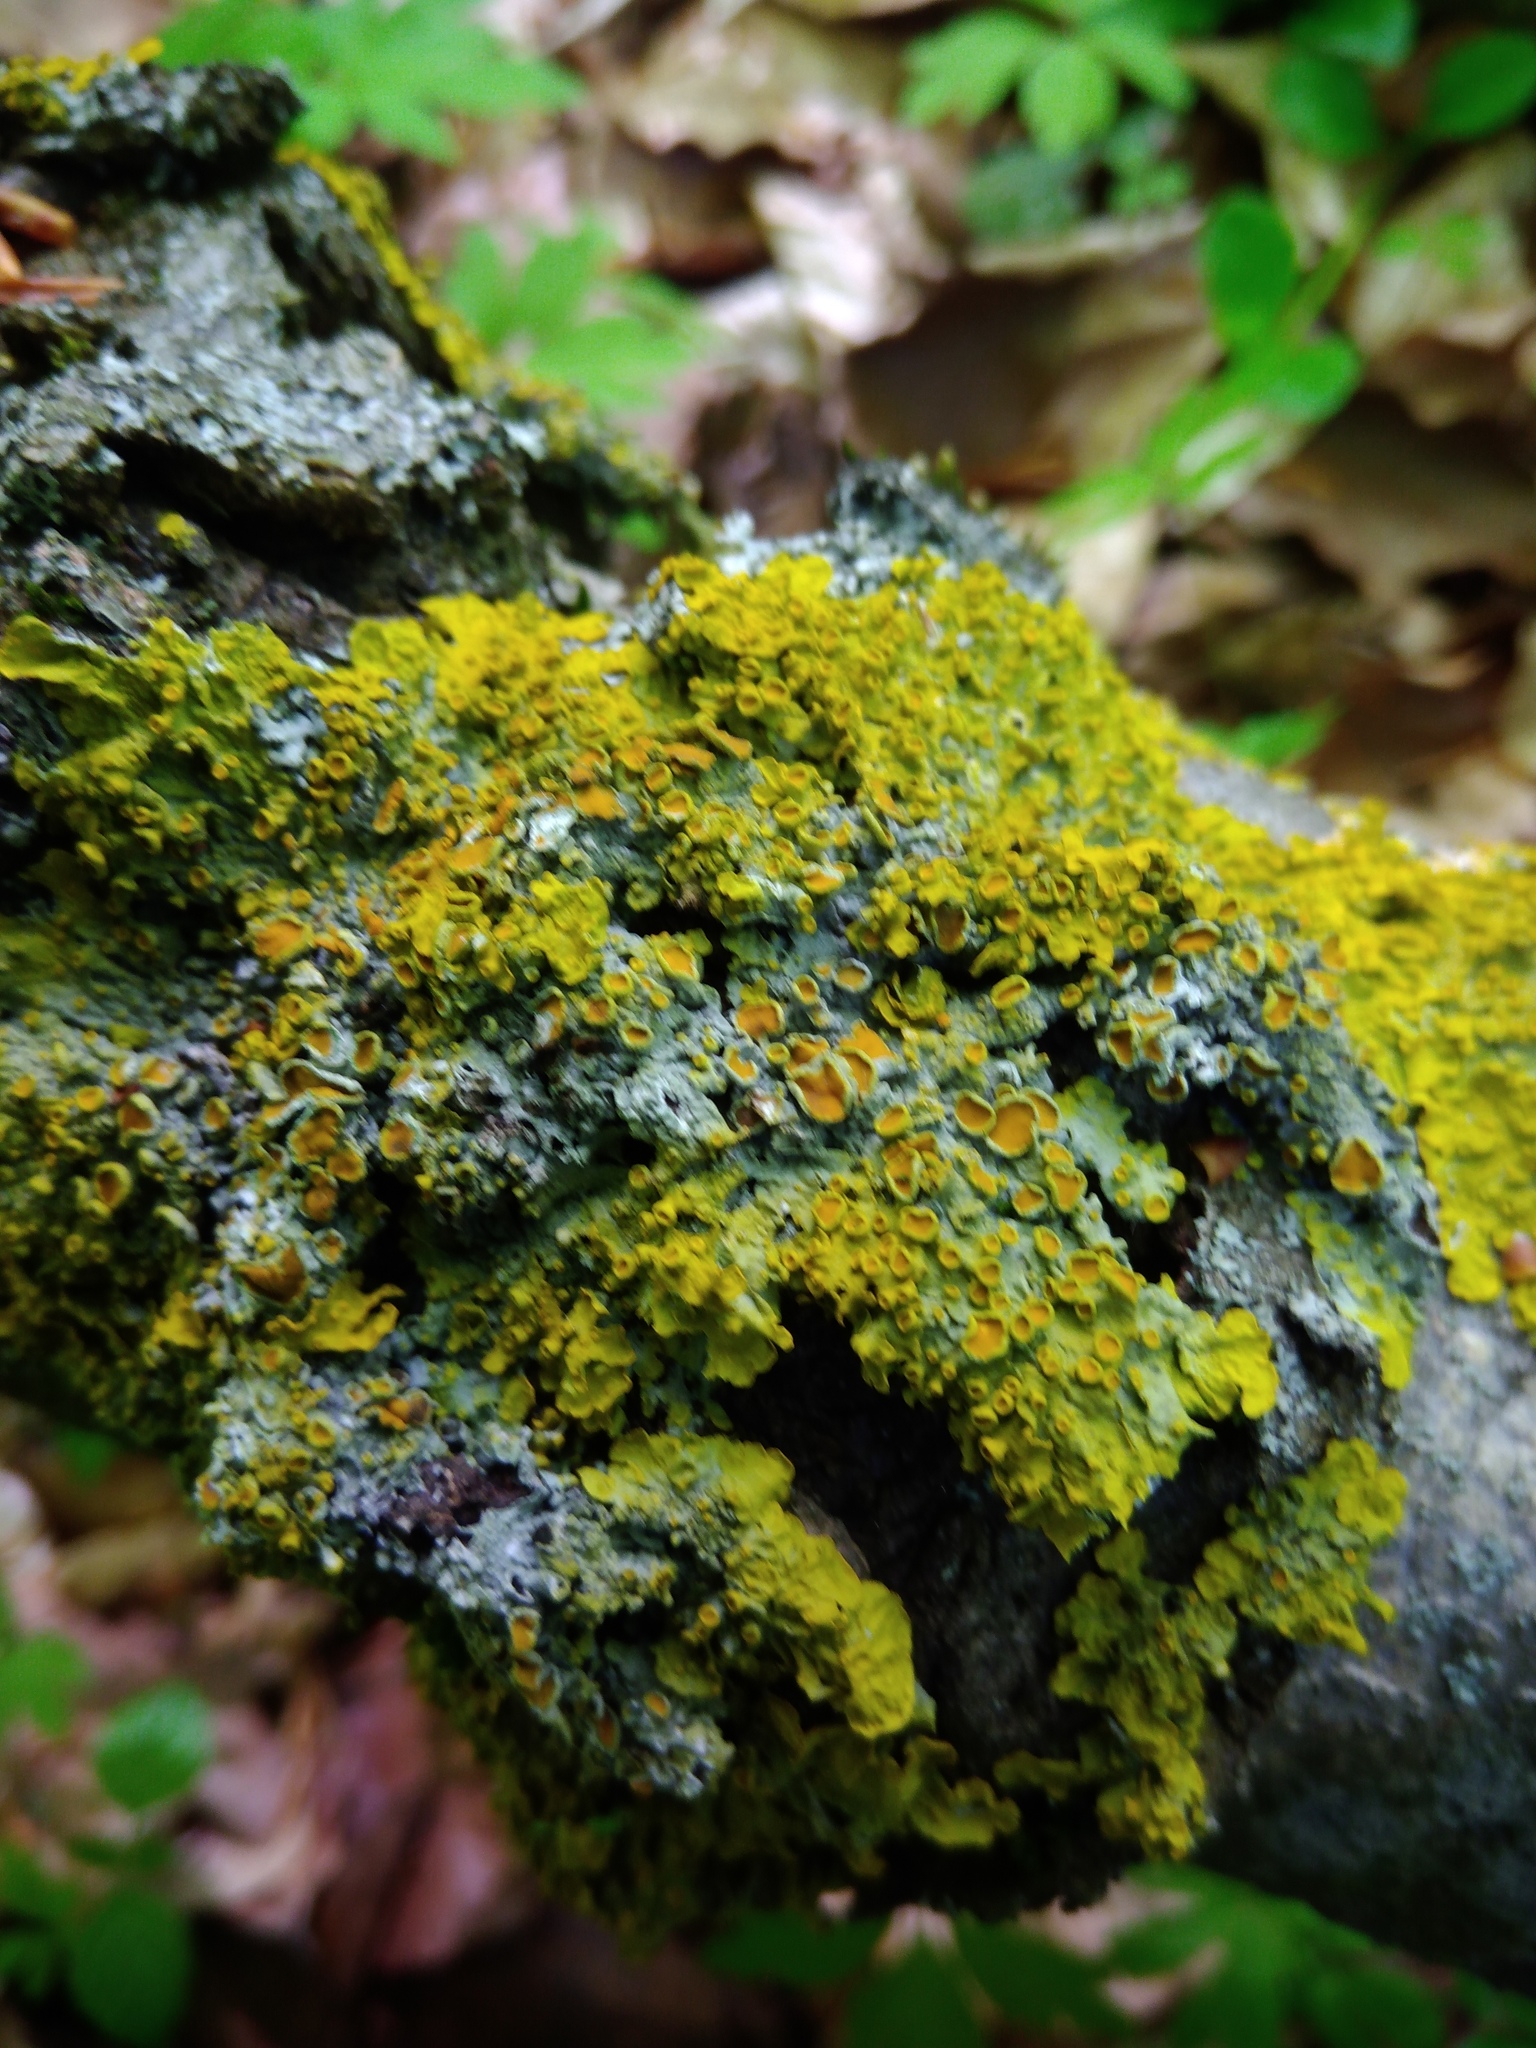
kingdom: Fungi
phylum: Ascomycota
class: Lecanoromycetes
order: Teloschistales
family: Teloschistaceae
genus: Xanthoria
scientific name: Xanthoria parietina
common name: Common orange lichen
